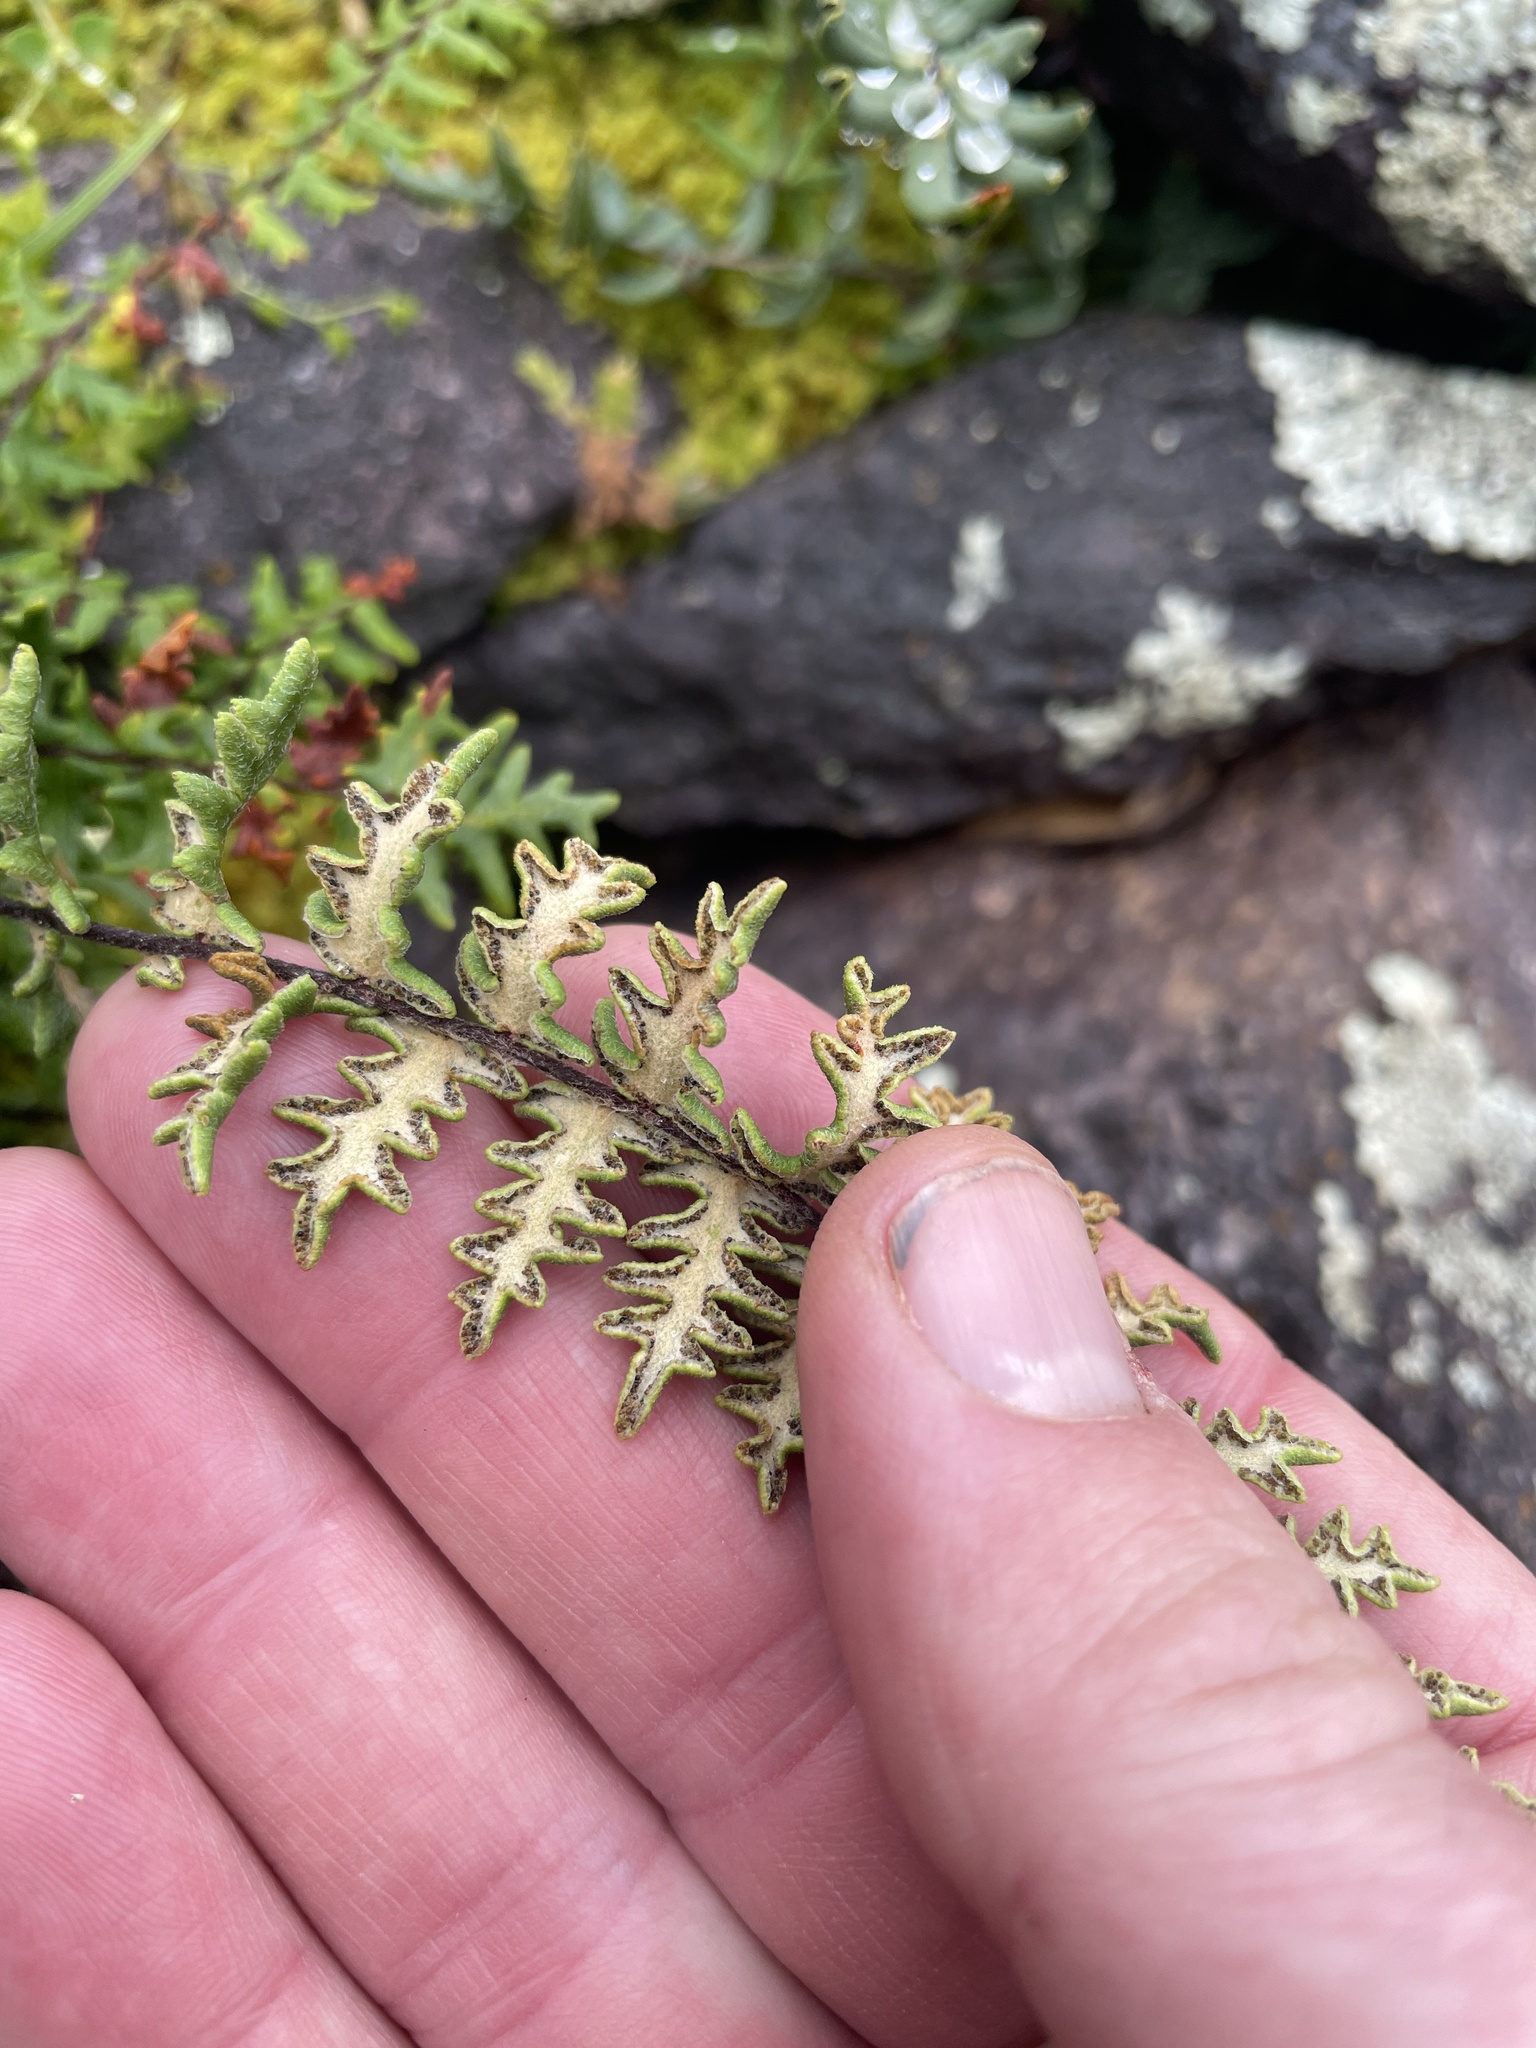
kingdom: Plantae
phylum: Tracheophyta
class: Polypodiopsida
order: Polypodiales
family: Pteridaceae
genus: Myriopteris
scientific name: Myriopteris aurea
